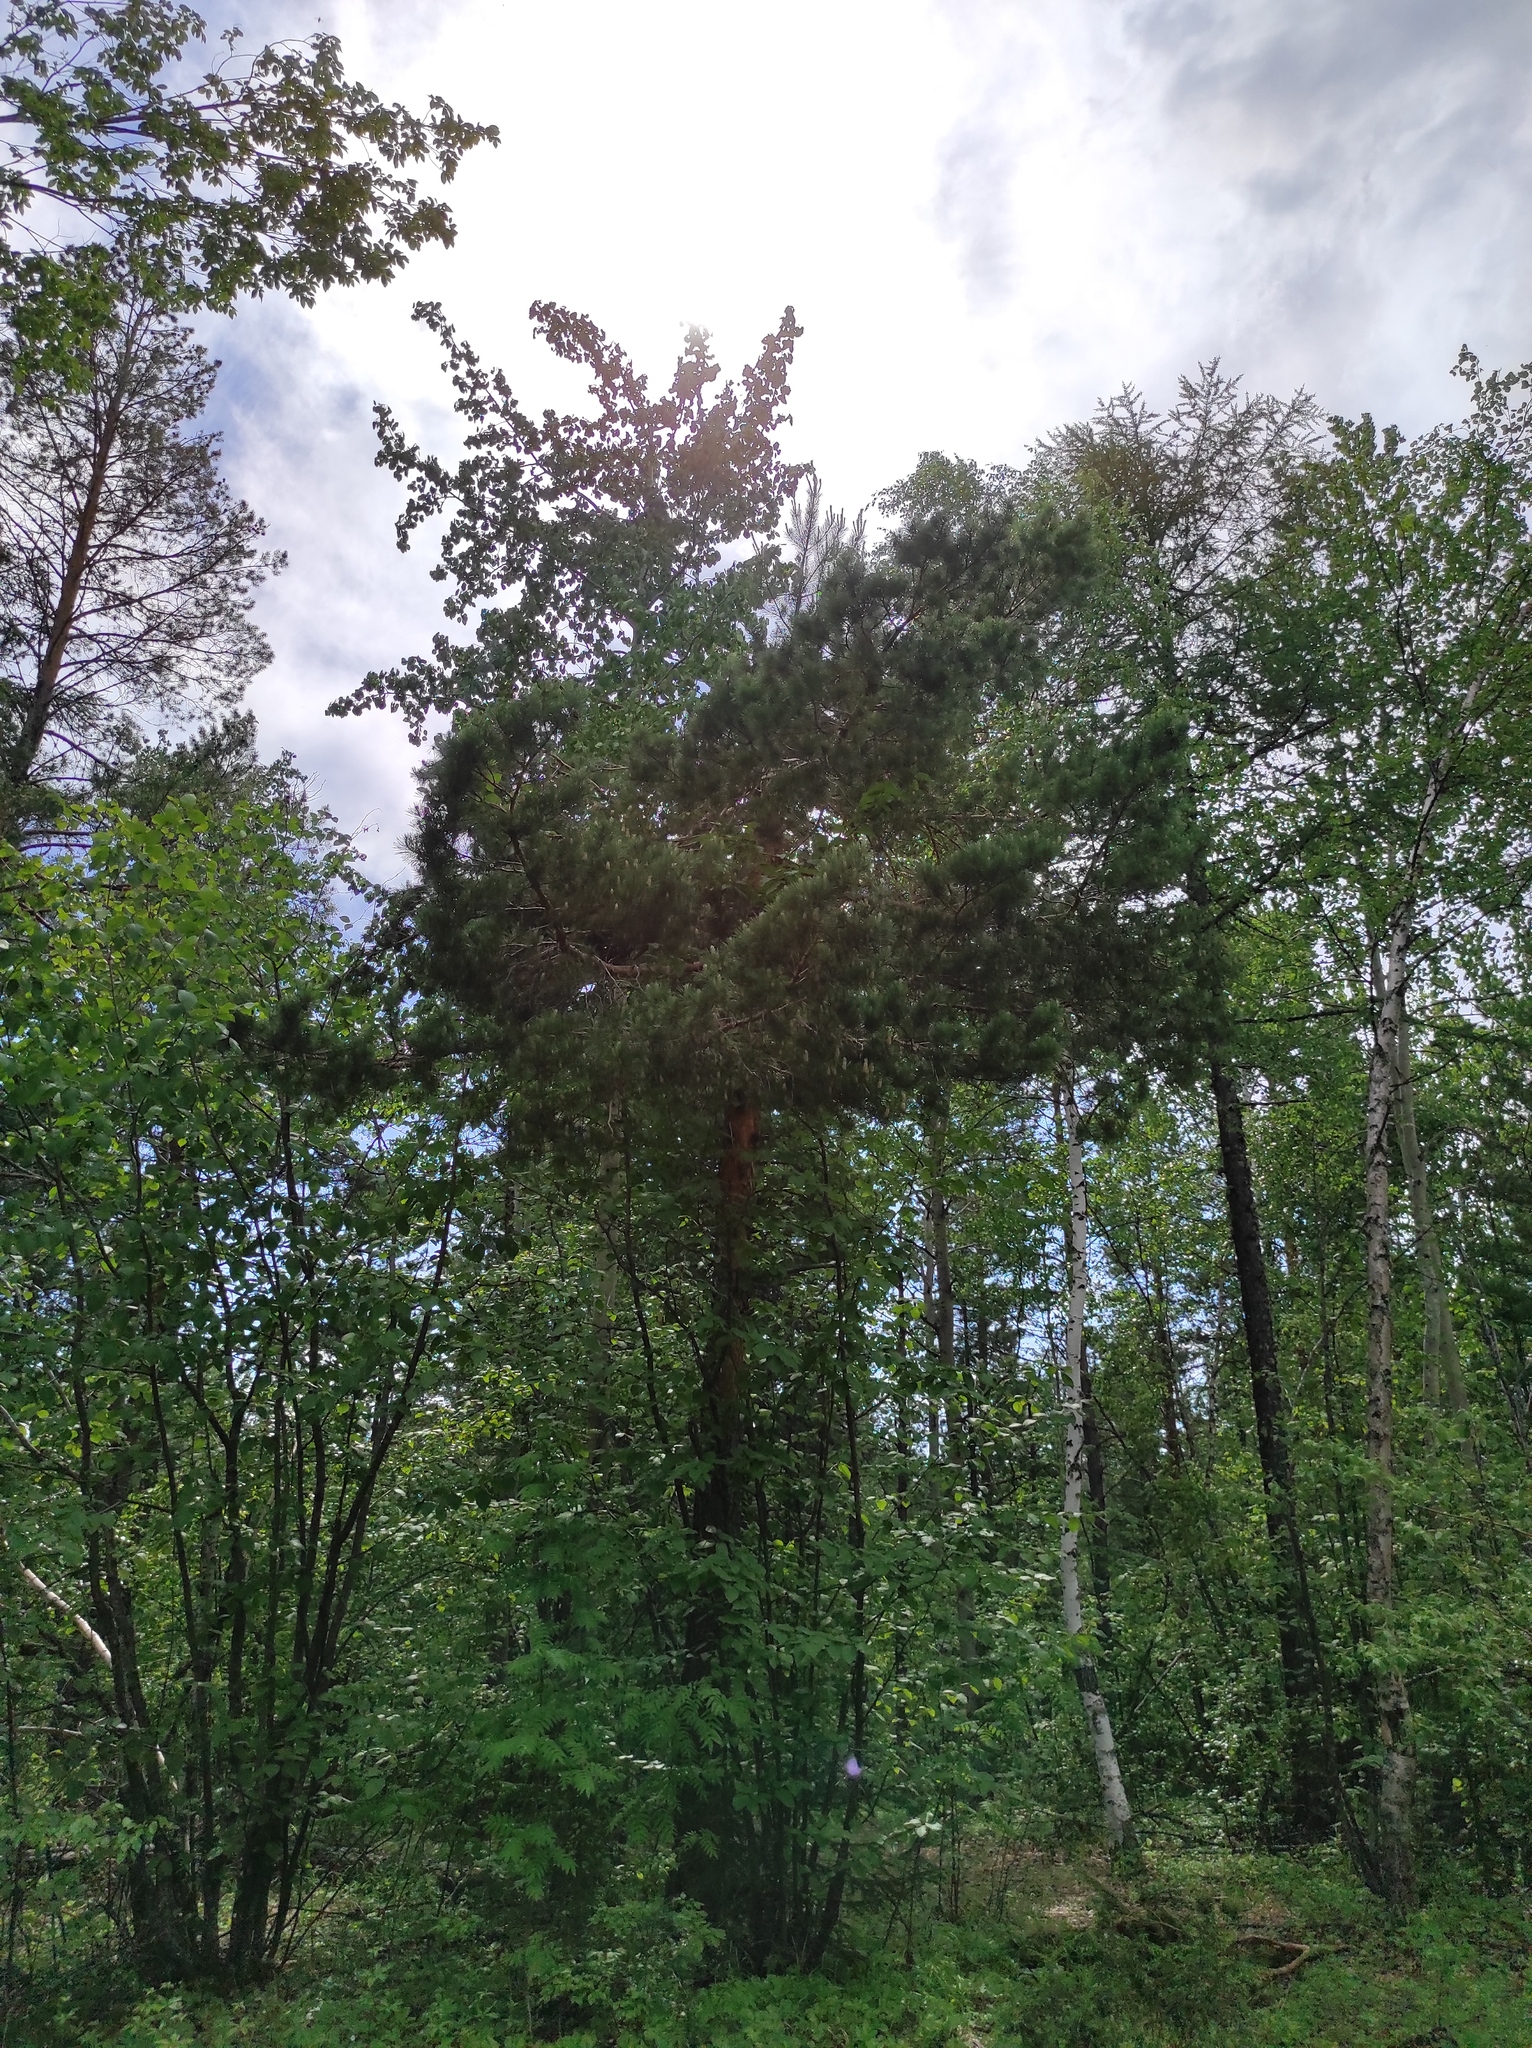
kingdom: Plantae
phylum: Tracheophyta
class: Pinopsida
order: Pinales
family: Pinaceae
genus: Pinus
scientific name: Pinus sylvestris
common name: Scots pine
